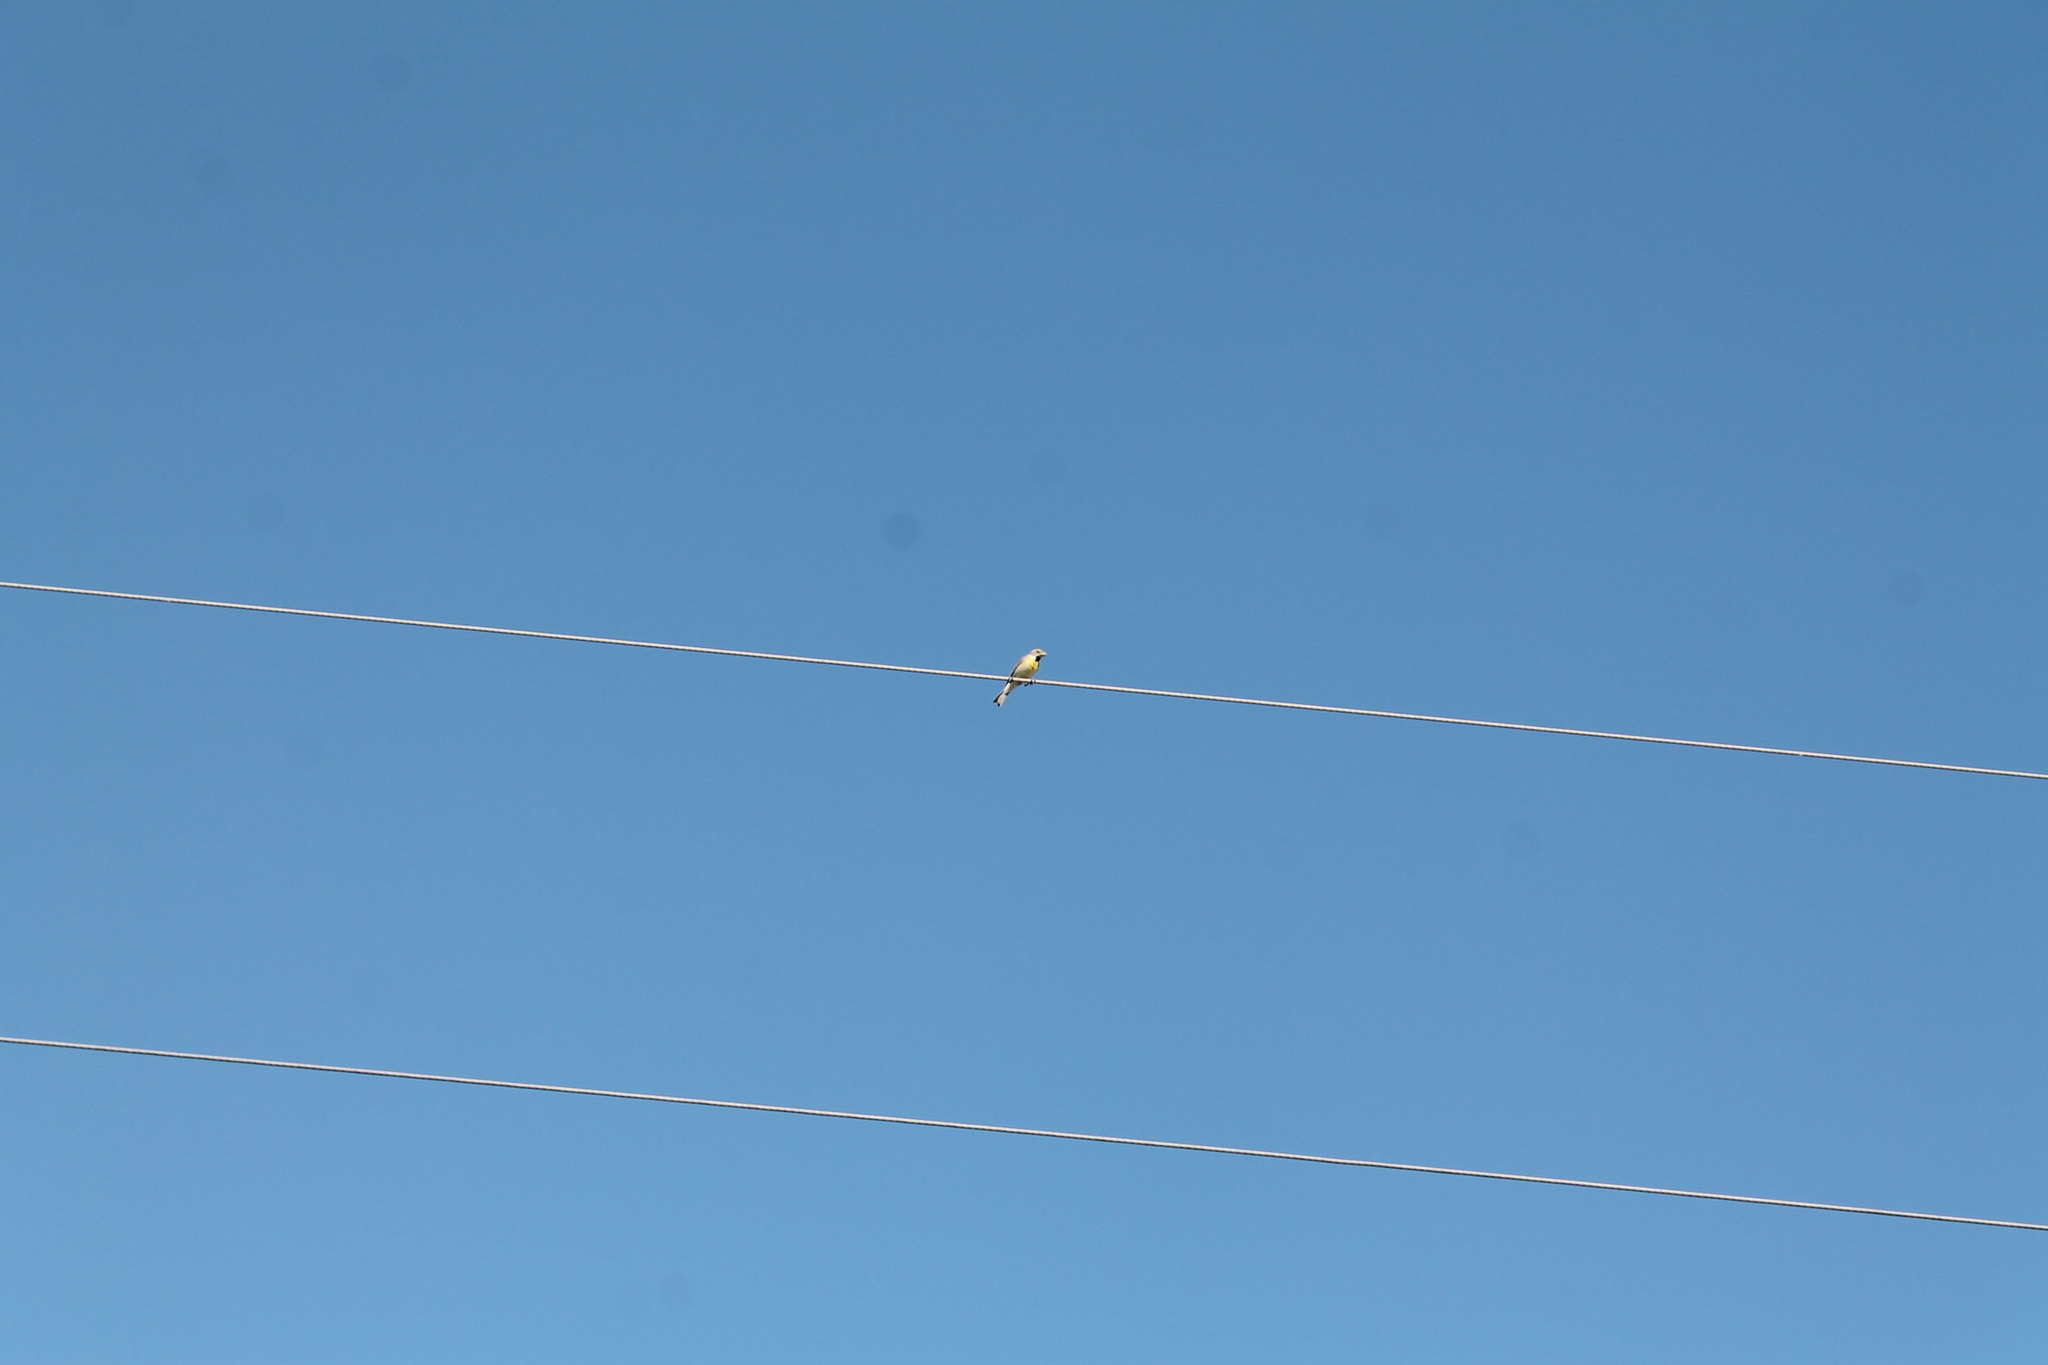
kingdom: Animalia
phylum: Chordata
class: Aves
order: Passeriformes
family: Cardinalidae
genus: Spiza
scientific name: Spiza americana
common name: Dickcissel
